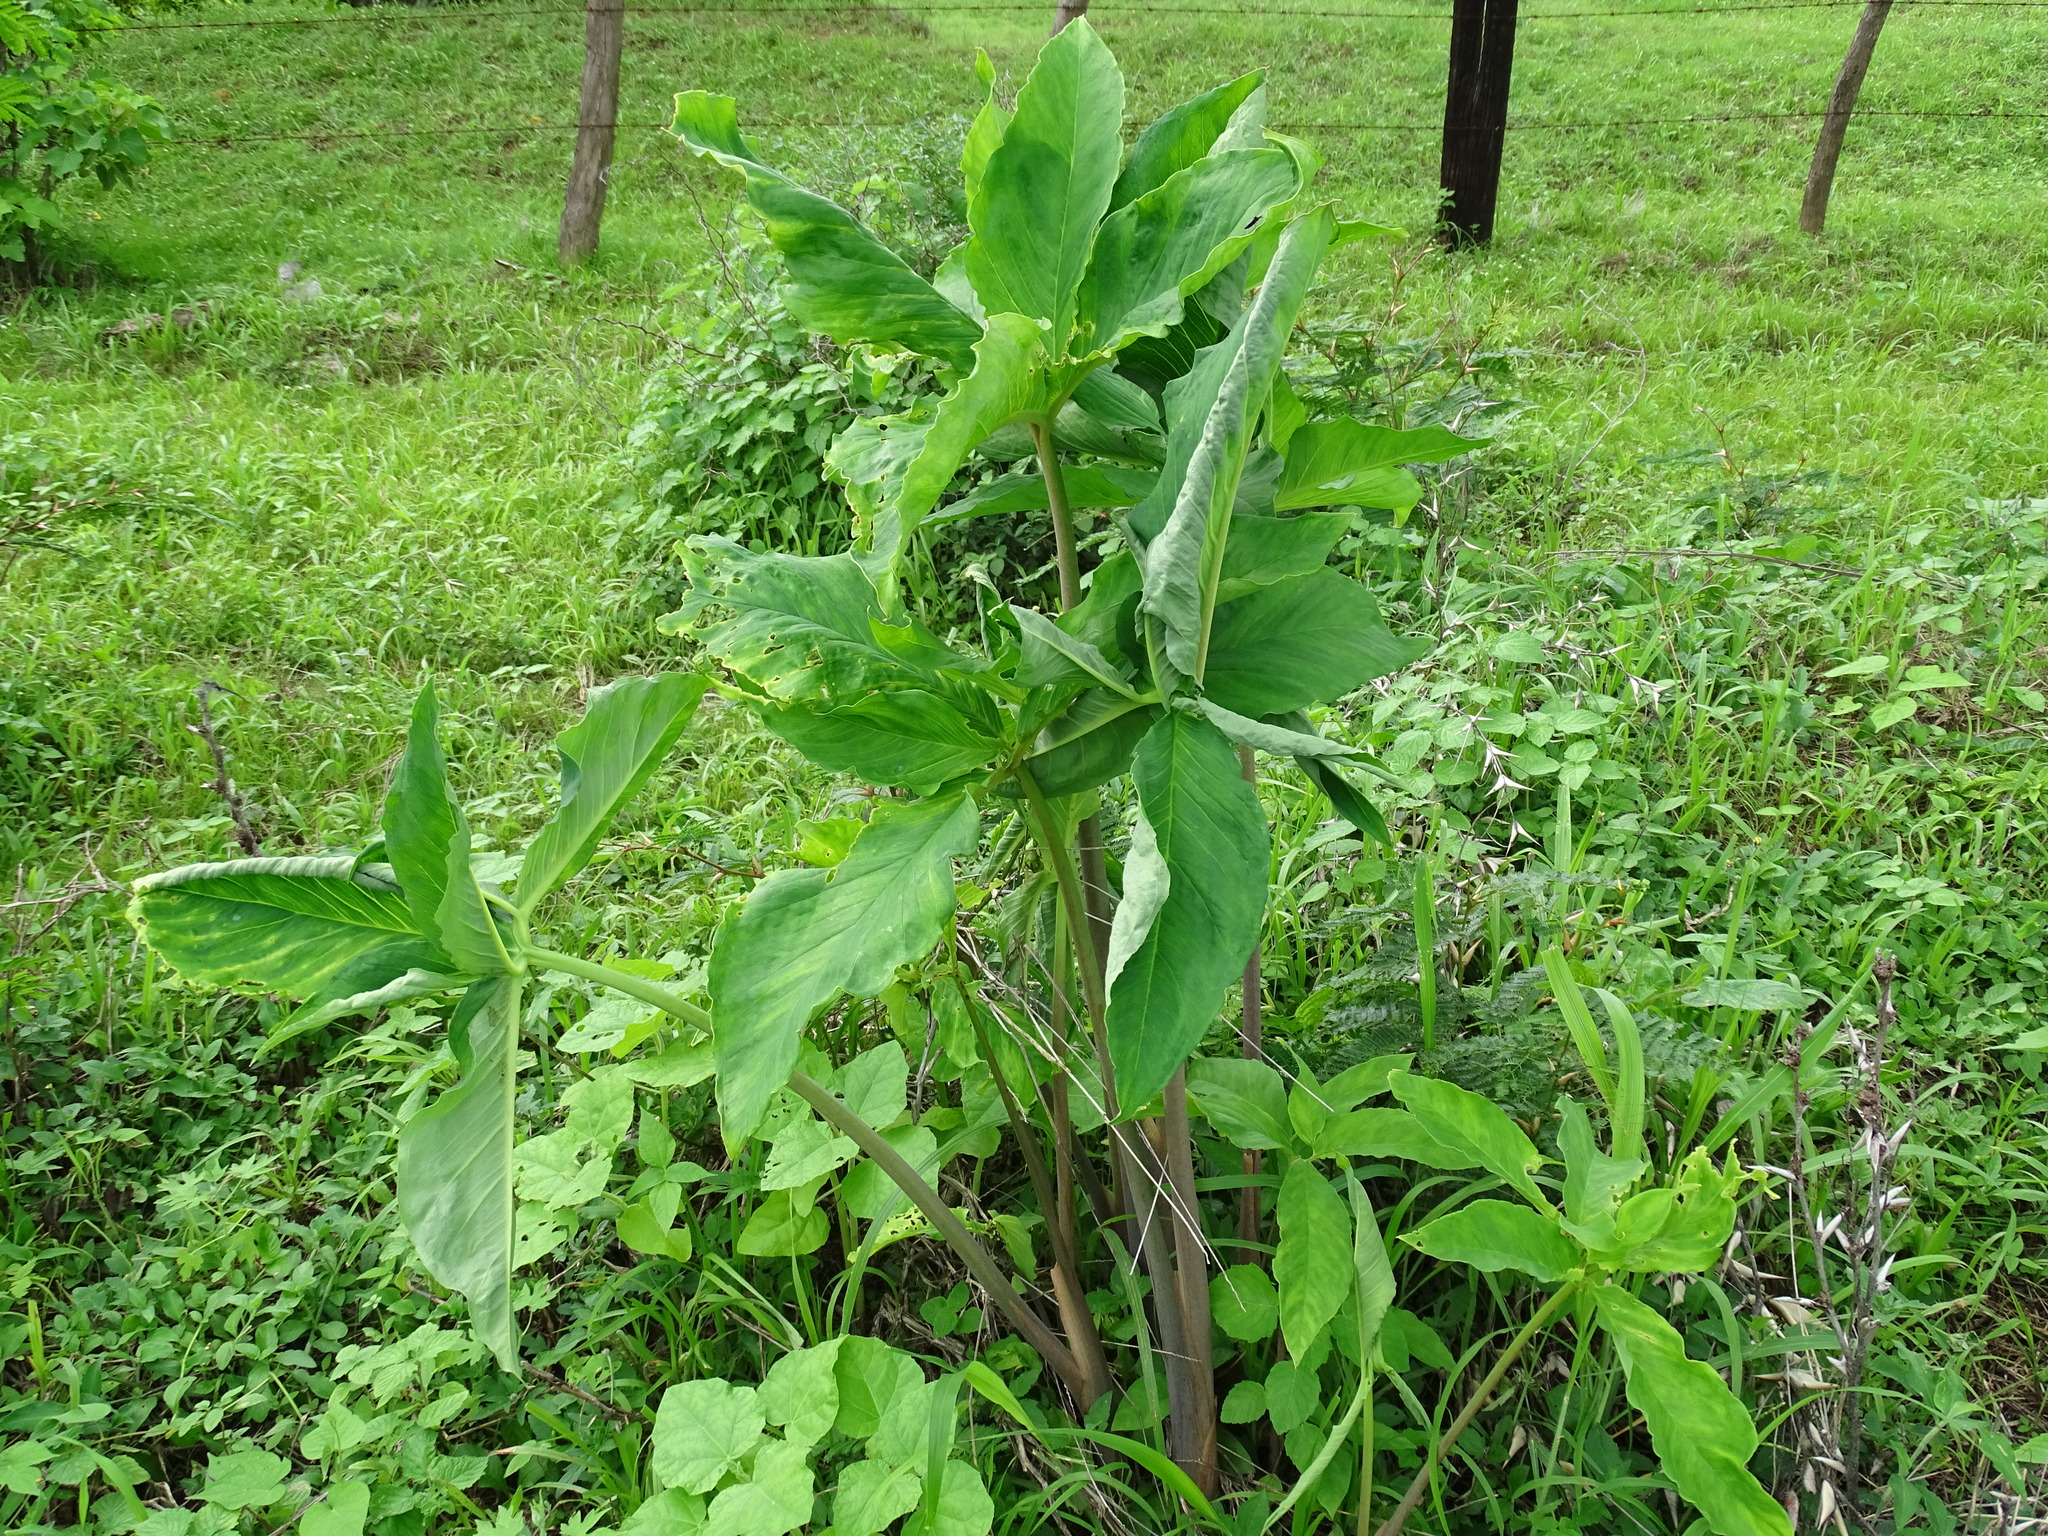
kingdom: Plantae
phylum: Tracheophyta
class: Liliopsida
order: Alismatales
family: Araceae
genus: Xanthosoma
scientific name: Xanthosoma wendlandii
